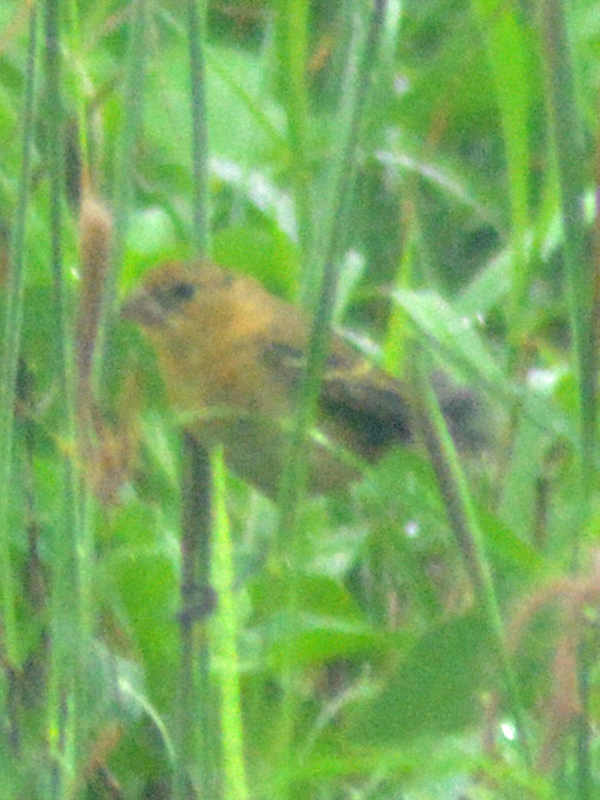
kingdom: Animalia
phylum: Chordata
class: Aves
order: Passeriformes
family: Thraupidae
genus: Sporophila
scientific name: Sporophila morelleti
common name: Morelet's seedeater
